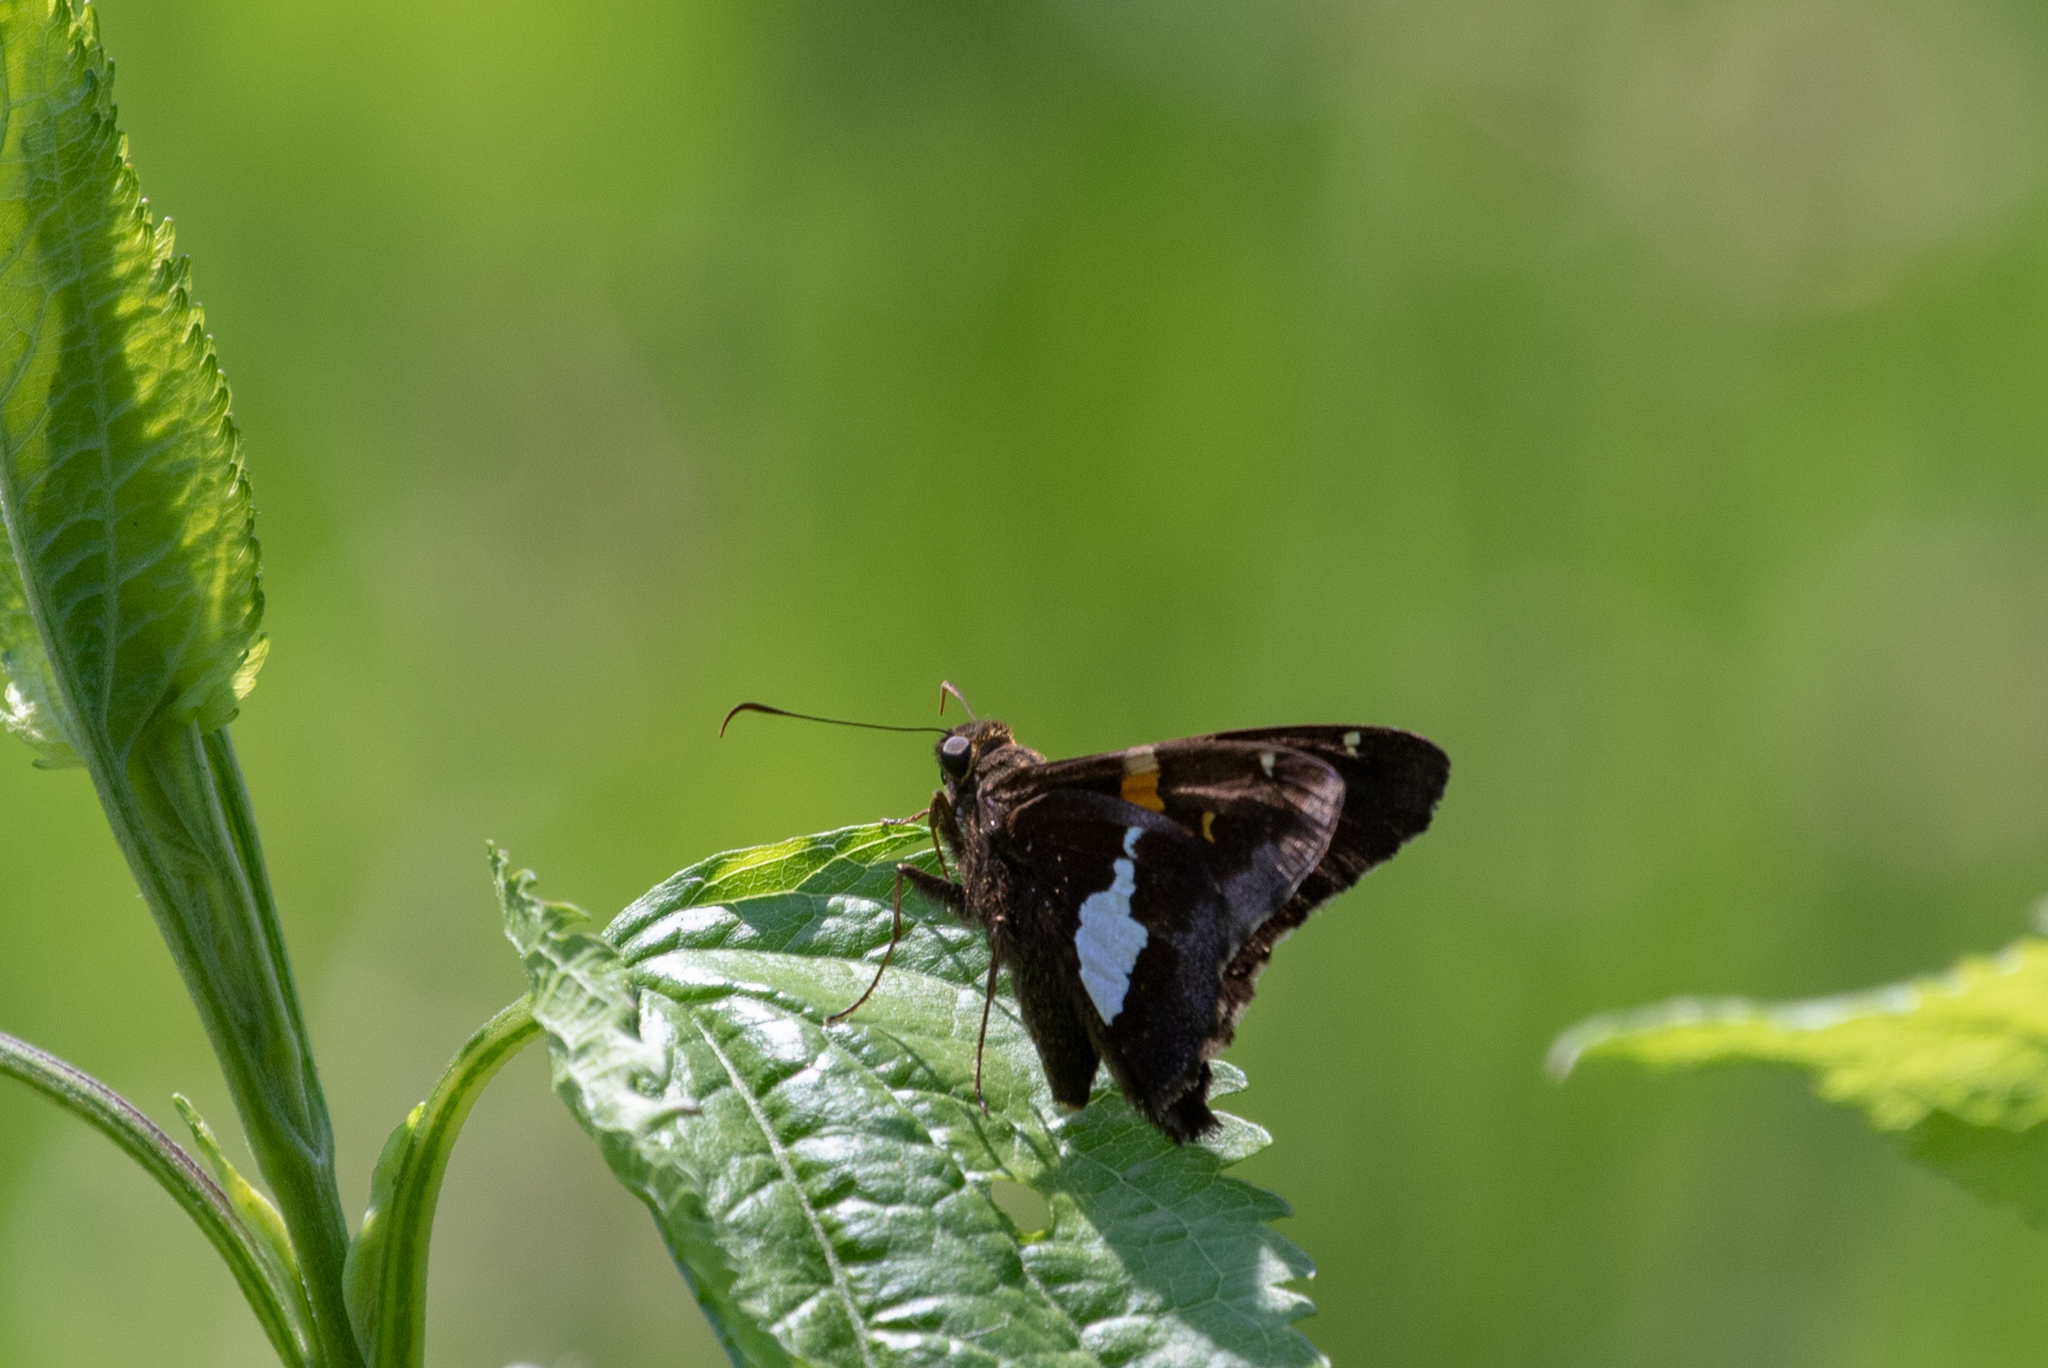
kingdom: Animalia
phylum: Arthropoda
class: Insecta
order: Lepidoptera
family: Hesperiidae
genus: Epargyreus
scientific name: Epargyreus clarus
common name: Silver-spotted skipper
